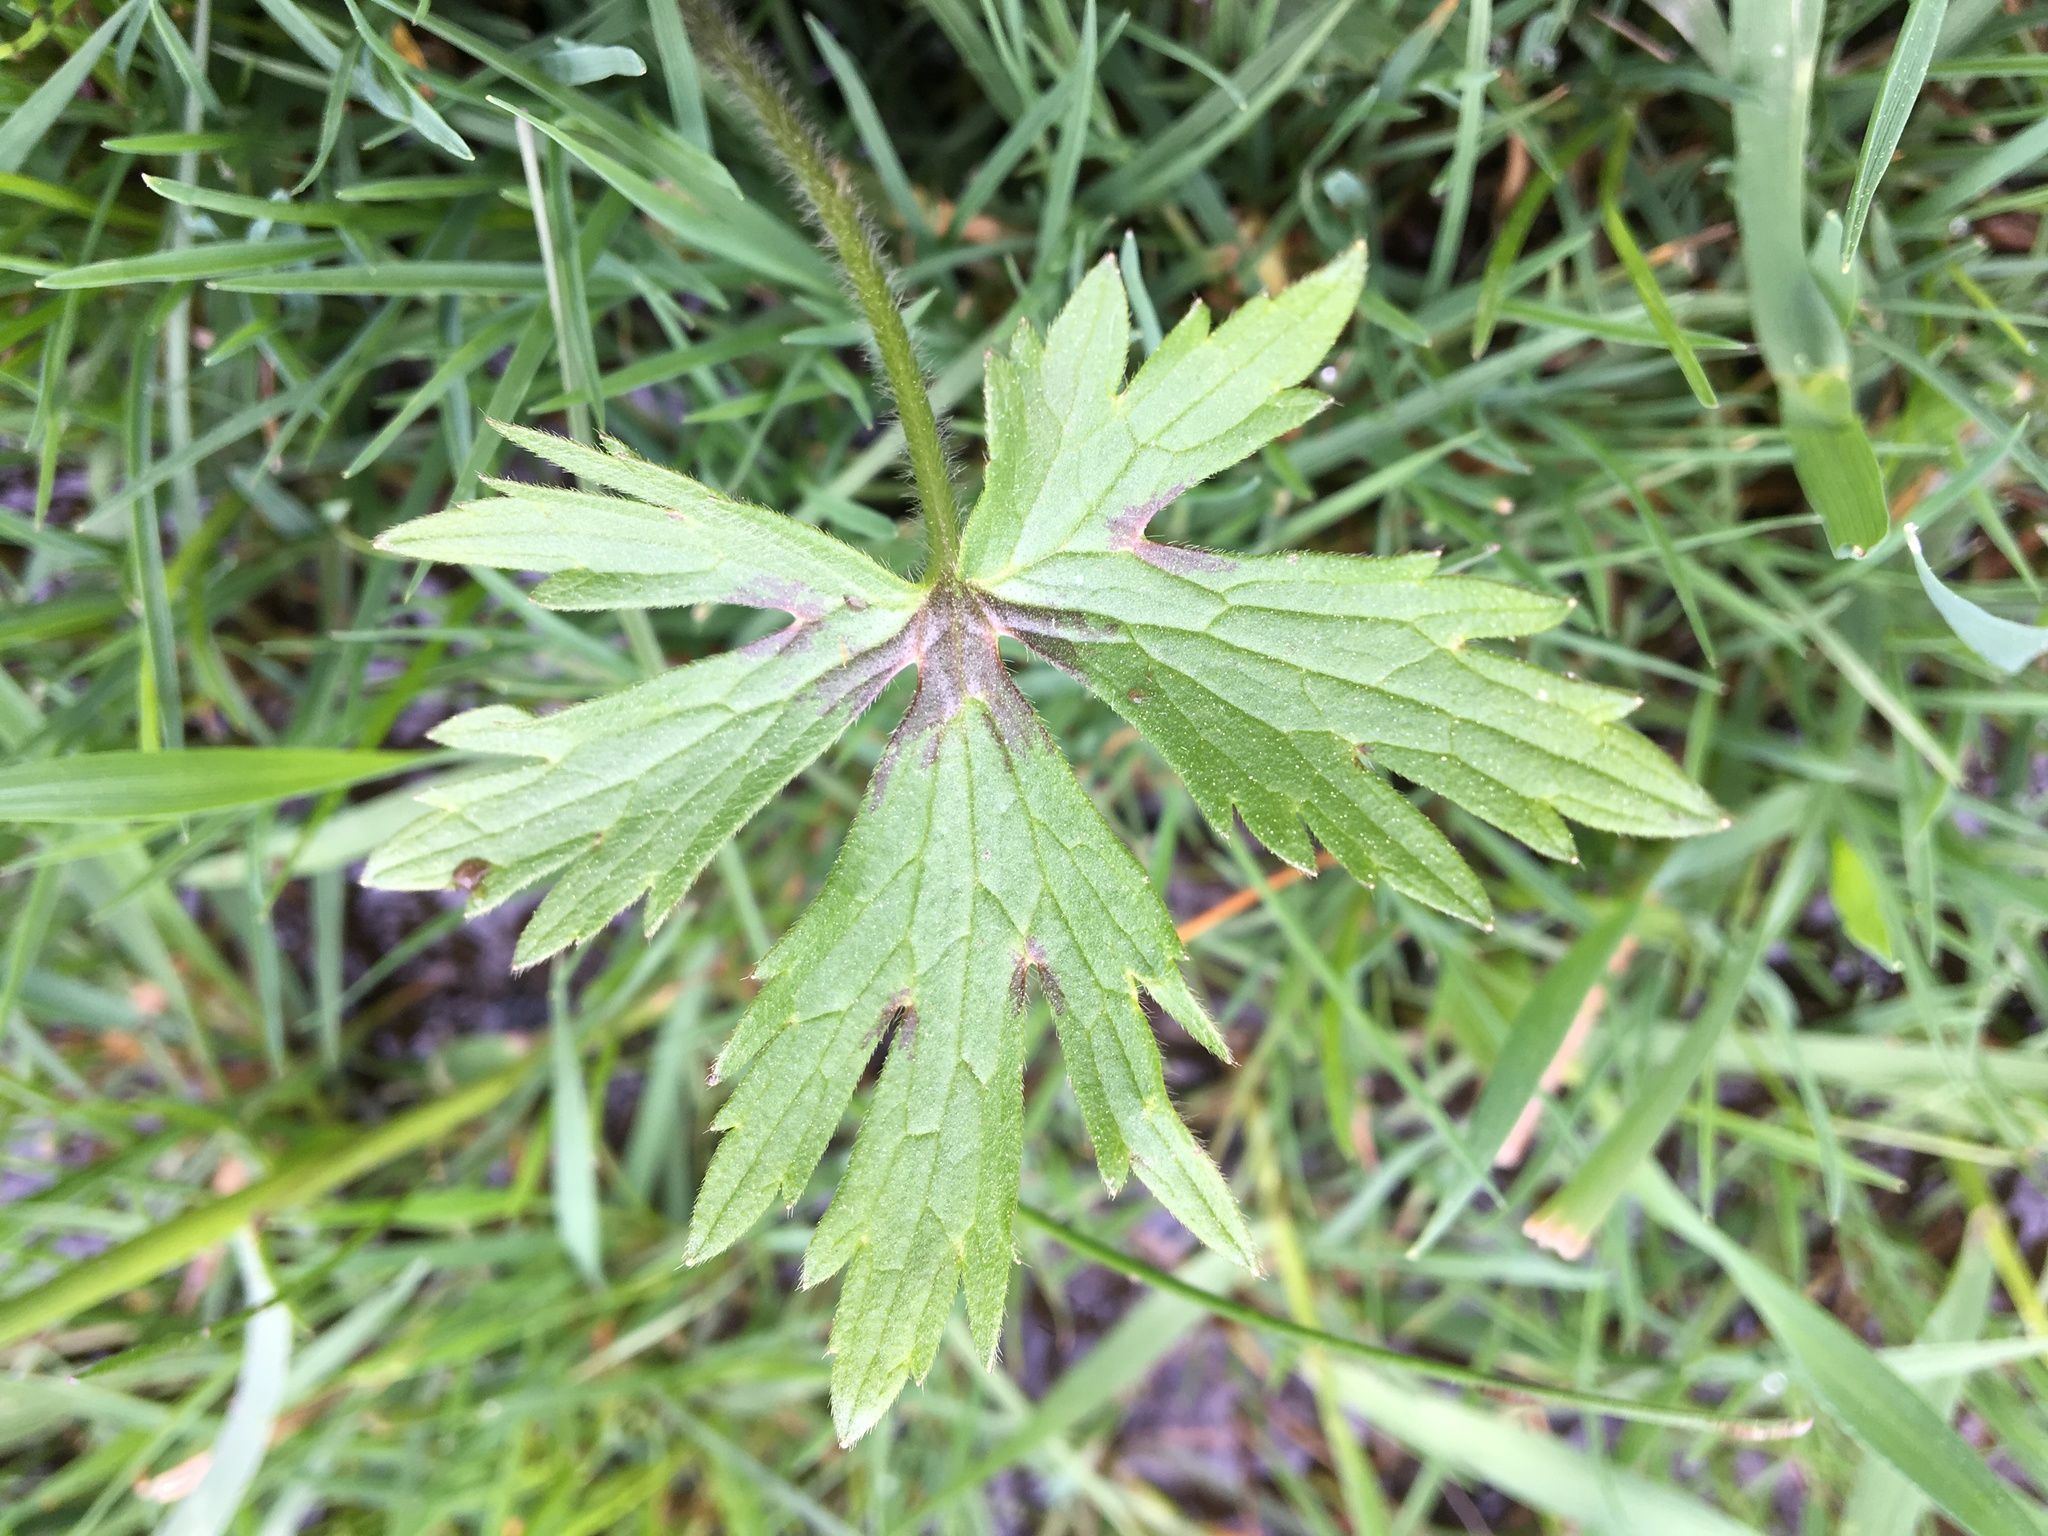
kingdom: Plantae
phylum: Tracheophyta
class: Magnoliopsida
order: Ranunculales
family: Ranunculaceae
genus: Ranunculus
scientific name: Ranunculus acris
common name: Meadow buttercup
